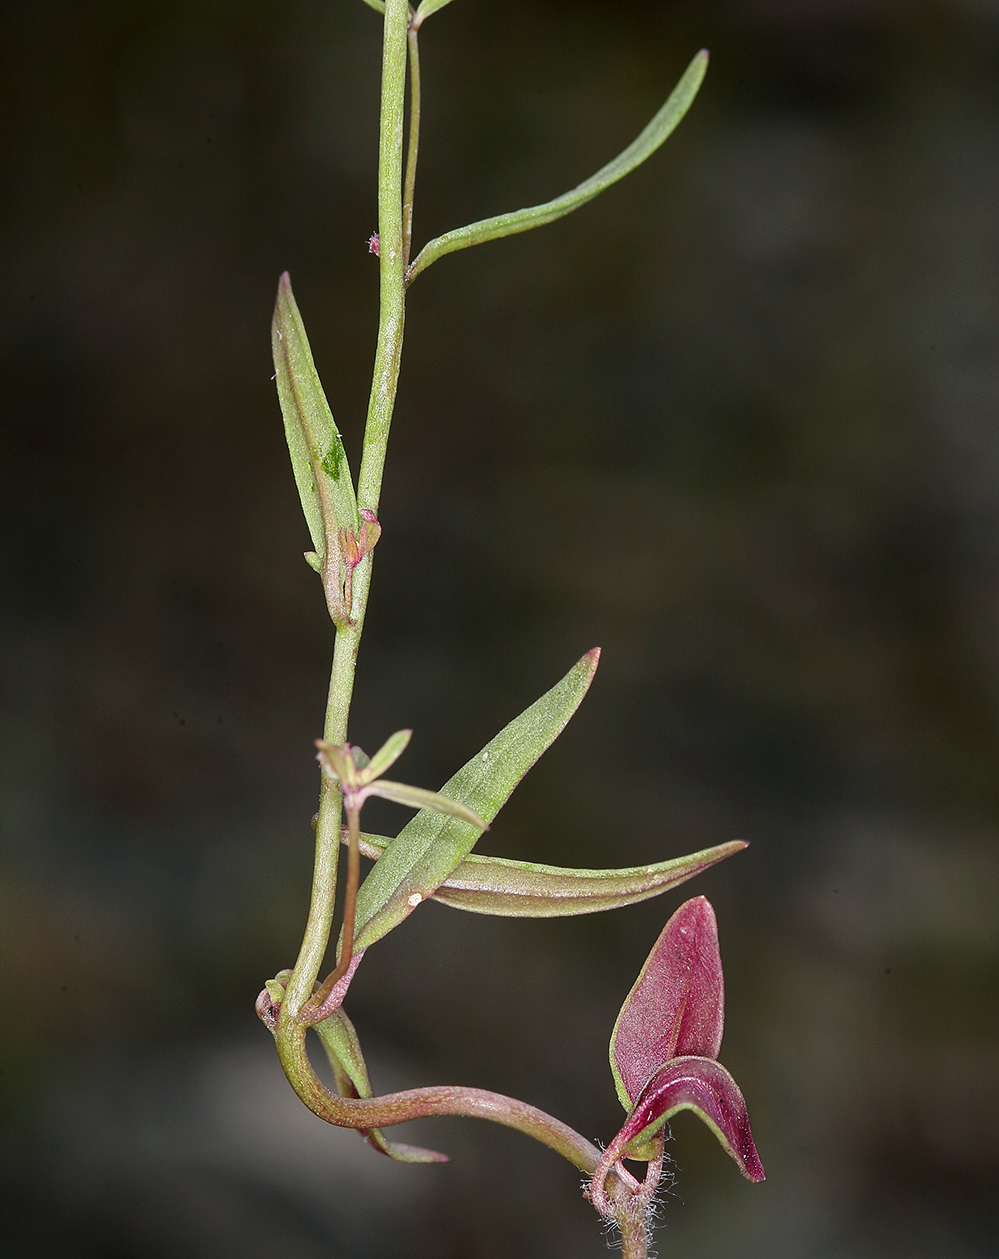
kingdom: Plantae
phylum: Tracheophyta
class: Magnoliopsida
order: Lamiales
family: Plantaginaceae
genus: Sairocarpus
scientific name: Sairocarpus kingii
